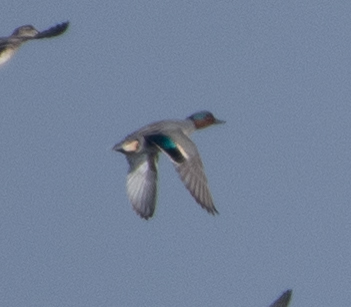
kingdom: Animalia
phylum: Chordata
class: Aves
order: Anseriformes
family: Anatidae
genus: Anas
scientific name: Anas crecca
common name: Eurasian teal
